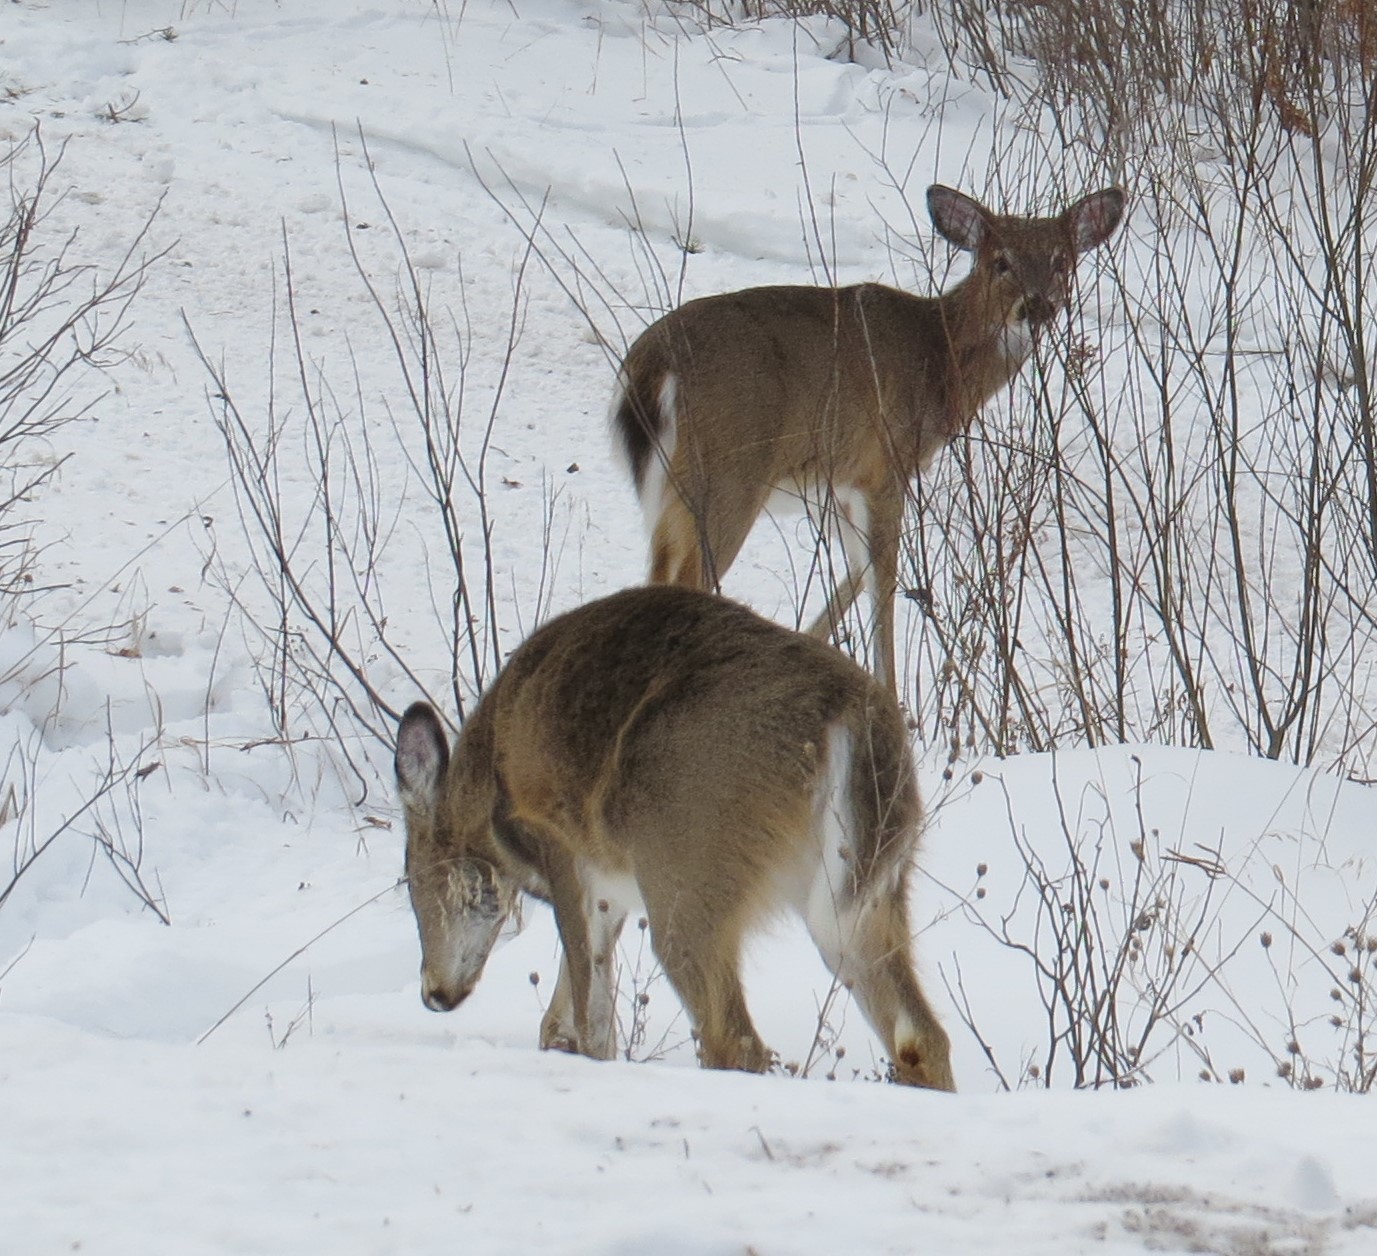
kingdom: Animalia
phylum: Chordata
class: Mammalia
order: Artiodactyla
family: Cervidae
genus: Odocoileus
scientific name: Odocoileus virginianus
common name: White-tailed deer
